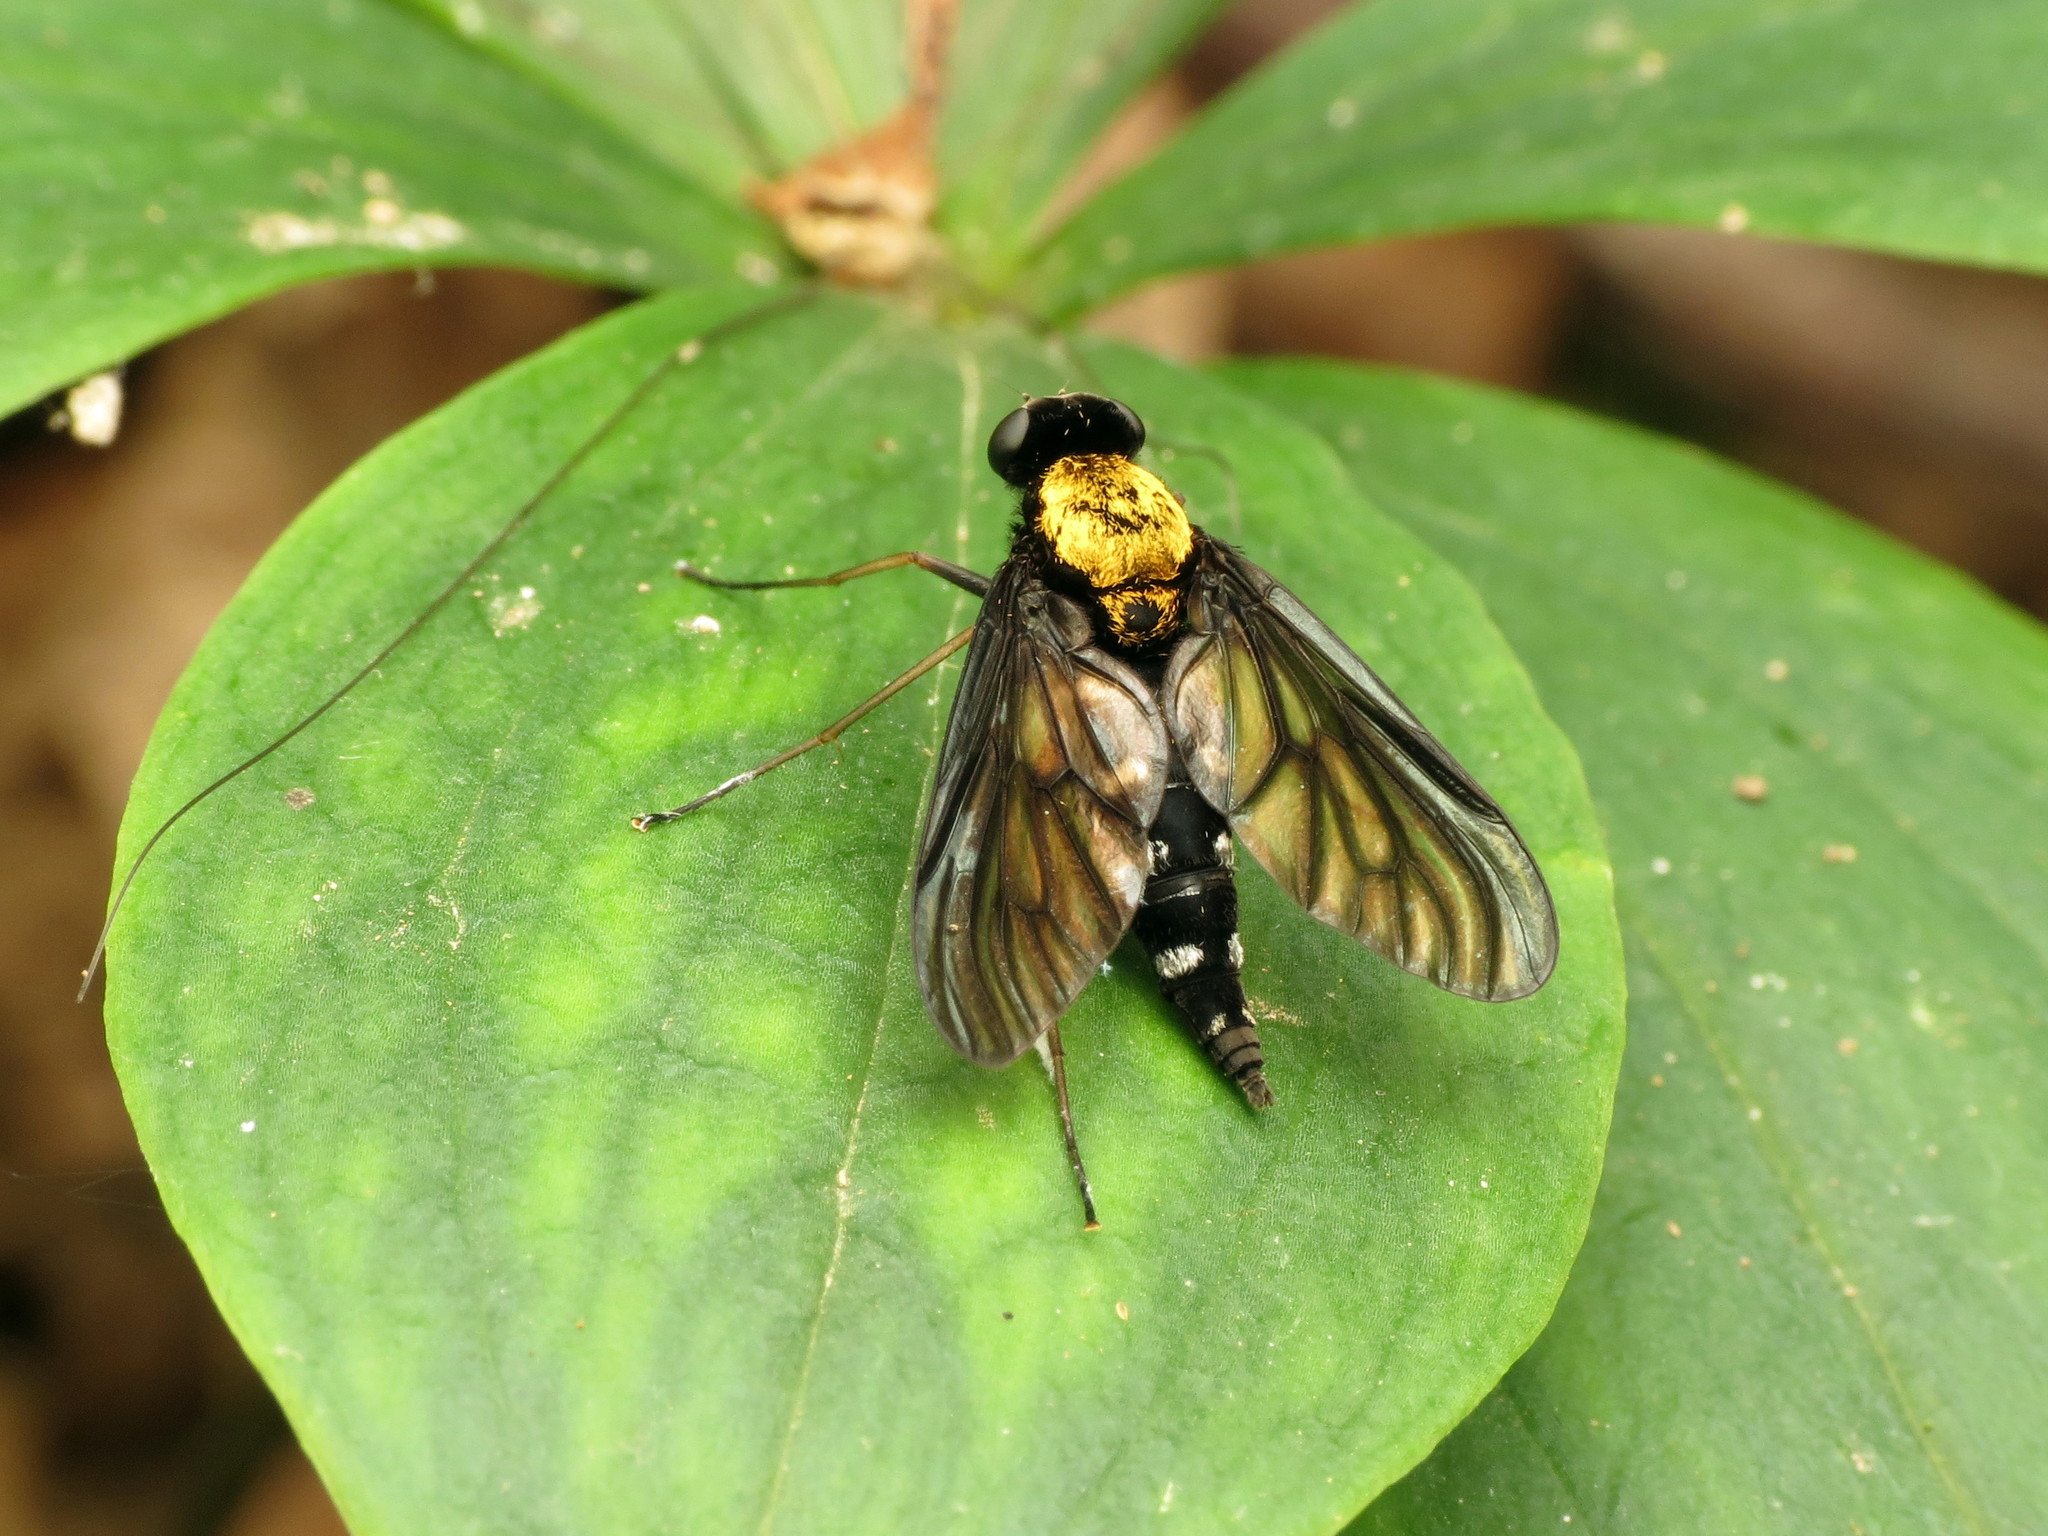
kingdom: Animalia
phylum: Arthropoda
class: Insecta
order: Diptera
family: Rhagionidae
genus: Chrysopilus
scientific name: Chrysopilus thoracicus
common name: Golden-backed snipe fly
